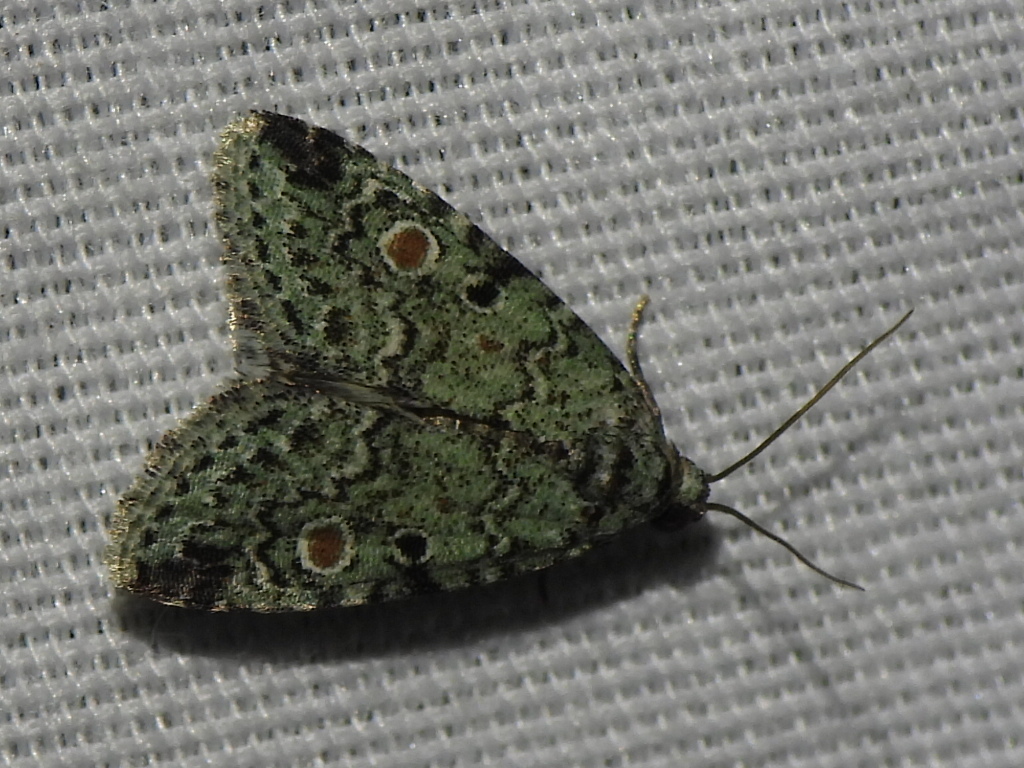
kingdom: Animalia
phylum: Arthropoda
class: Insecta
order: Lepidoptera
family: Noctuidae
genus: Maliattha
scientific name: Maliattha concinnimacula
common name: Red-spotted glyph
